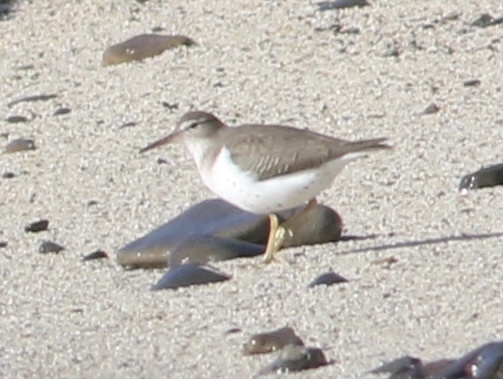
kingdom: Animalia
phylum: Chordata
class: Aves
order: Charadriiformes
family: Scolopacidae
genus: Actitis
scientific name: Actitis macularius
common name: Spotted sandpiper
